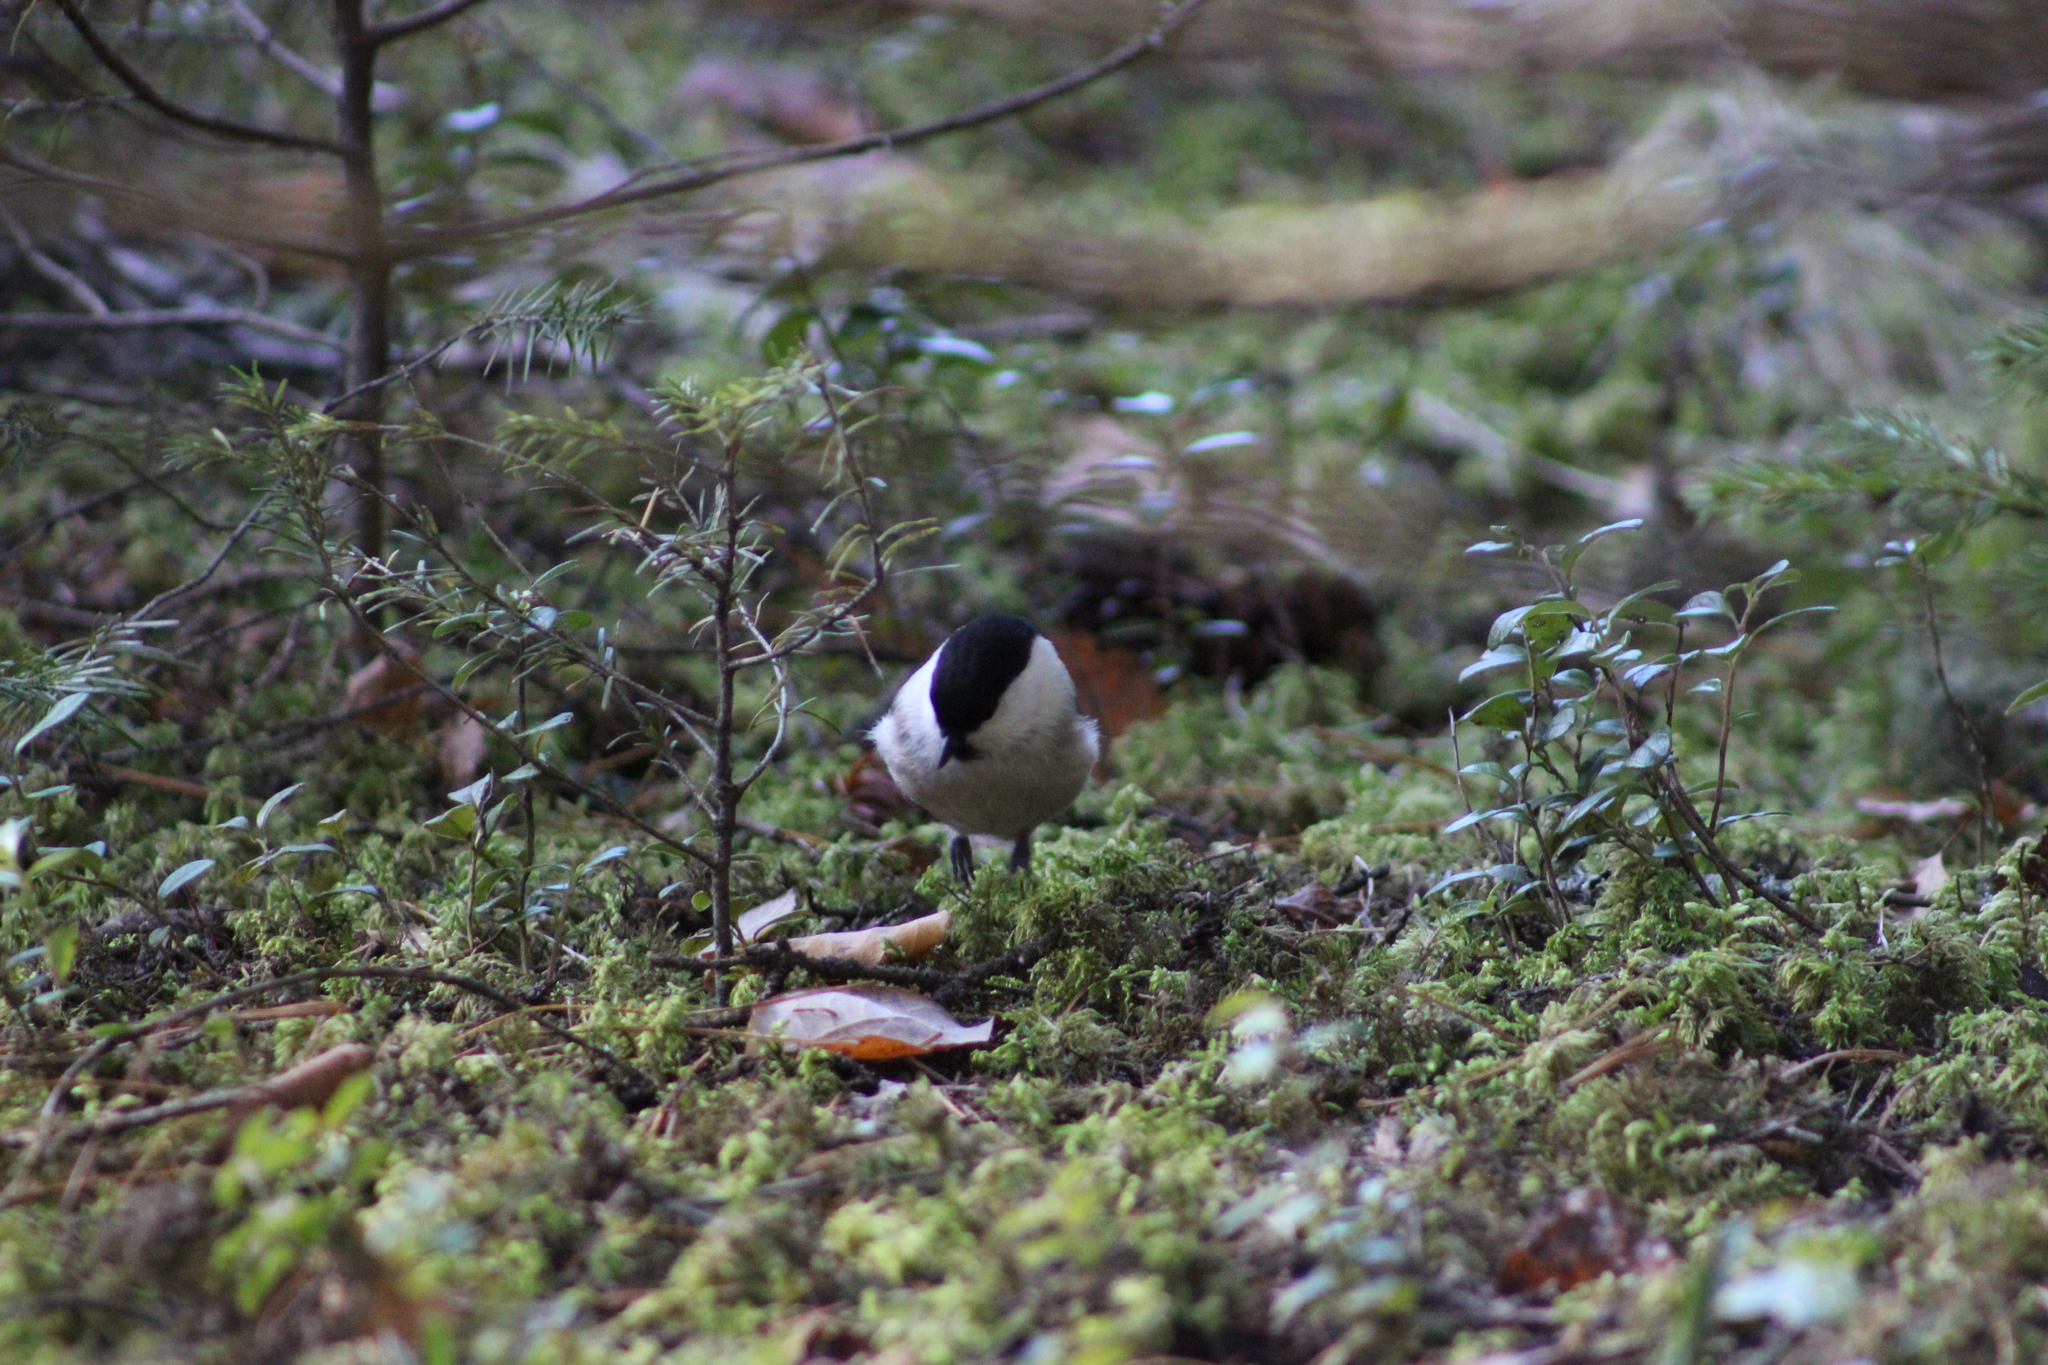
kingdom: Animalia
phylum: Chordata
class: Aves
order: Passeriformes
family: Paridae
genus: Poecile
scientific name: Poecile montanus
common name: Willow tit
